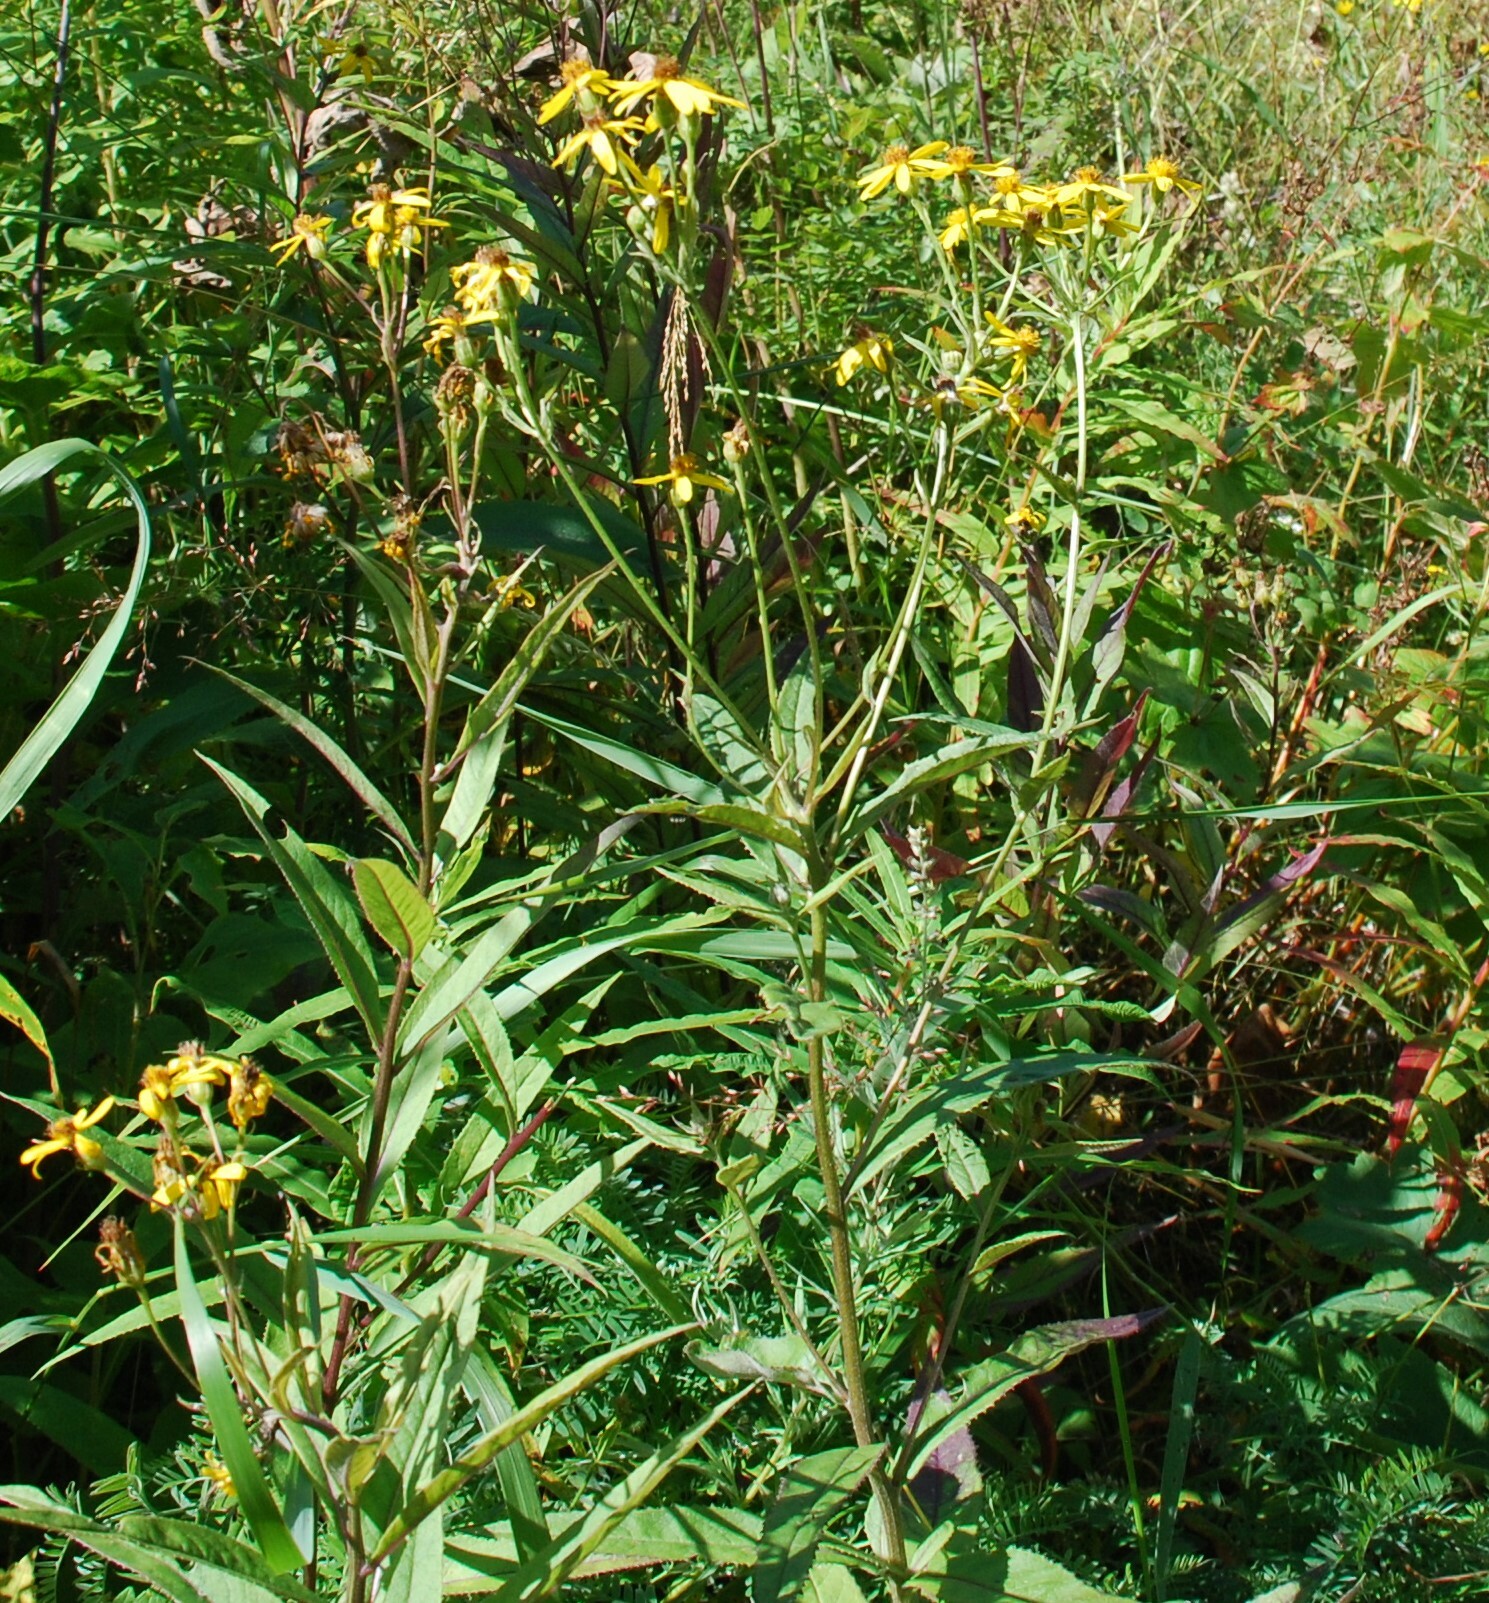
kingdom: Plantae
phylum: Tracheophyta
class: Magnoliopsida
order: Asterales
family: Asteraceae
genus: Senecio
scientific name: Senecio nemorensis
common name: Alpine ragwort
